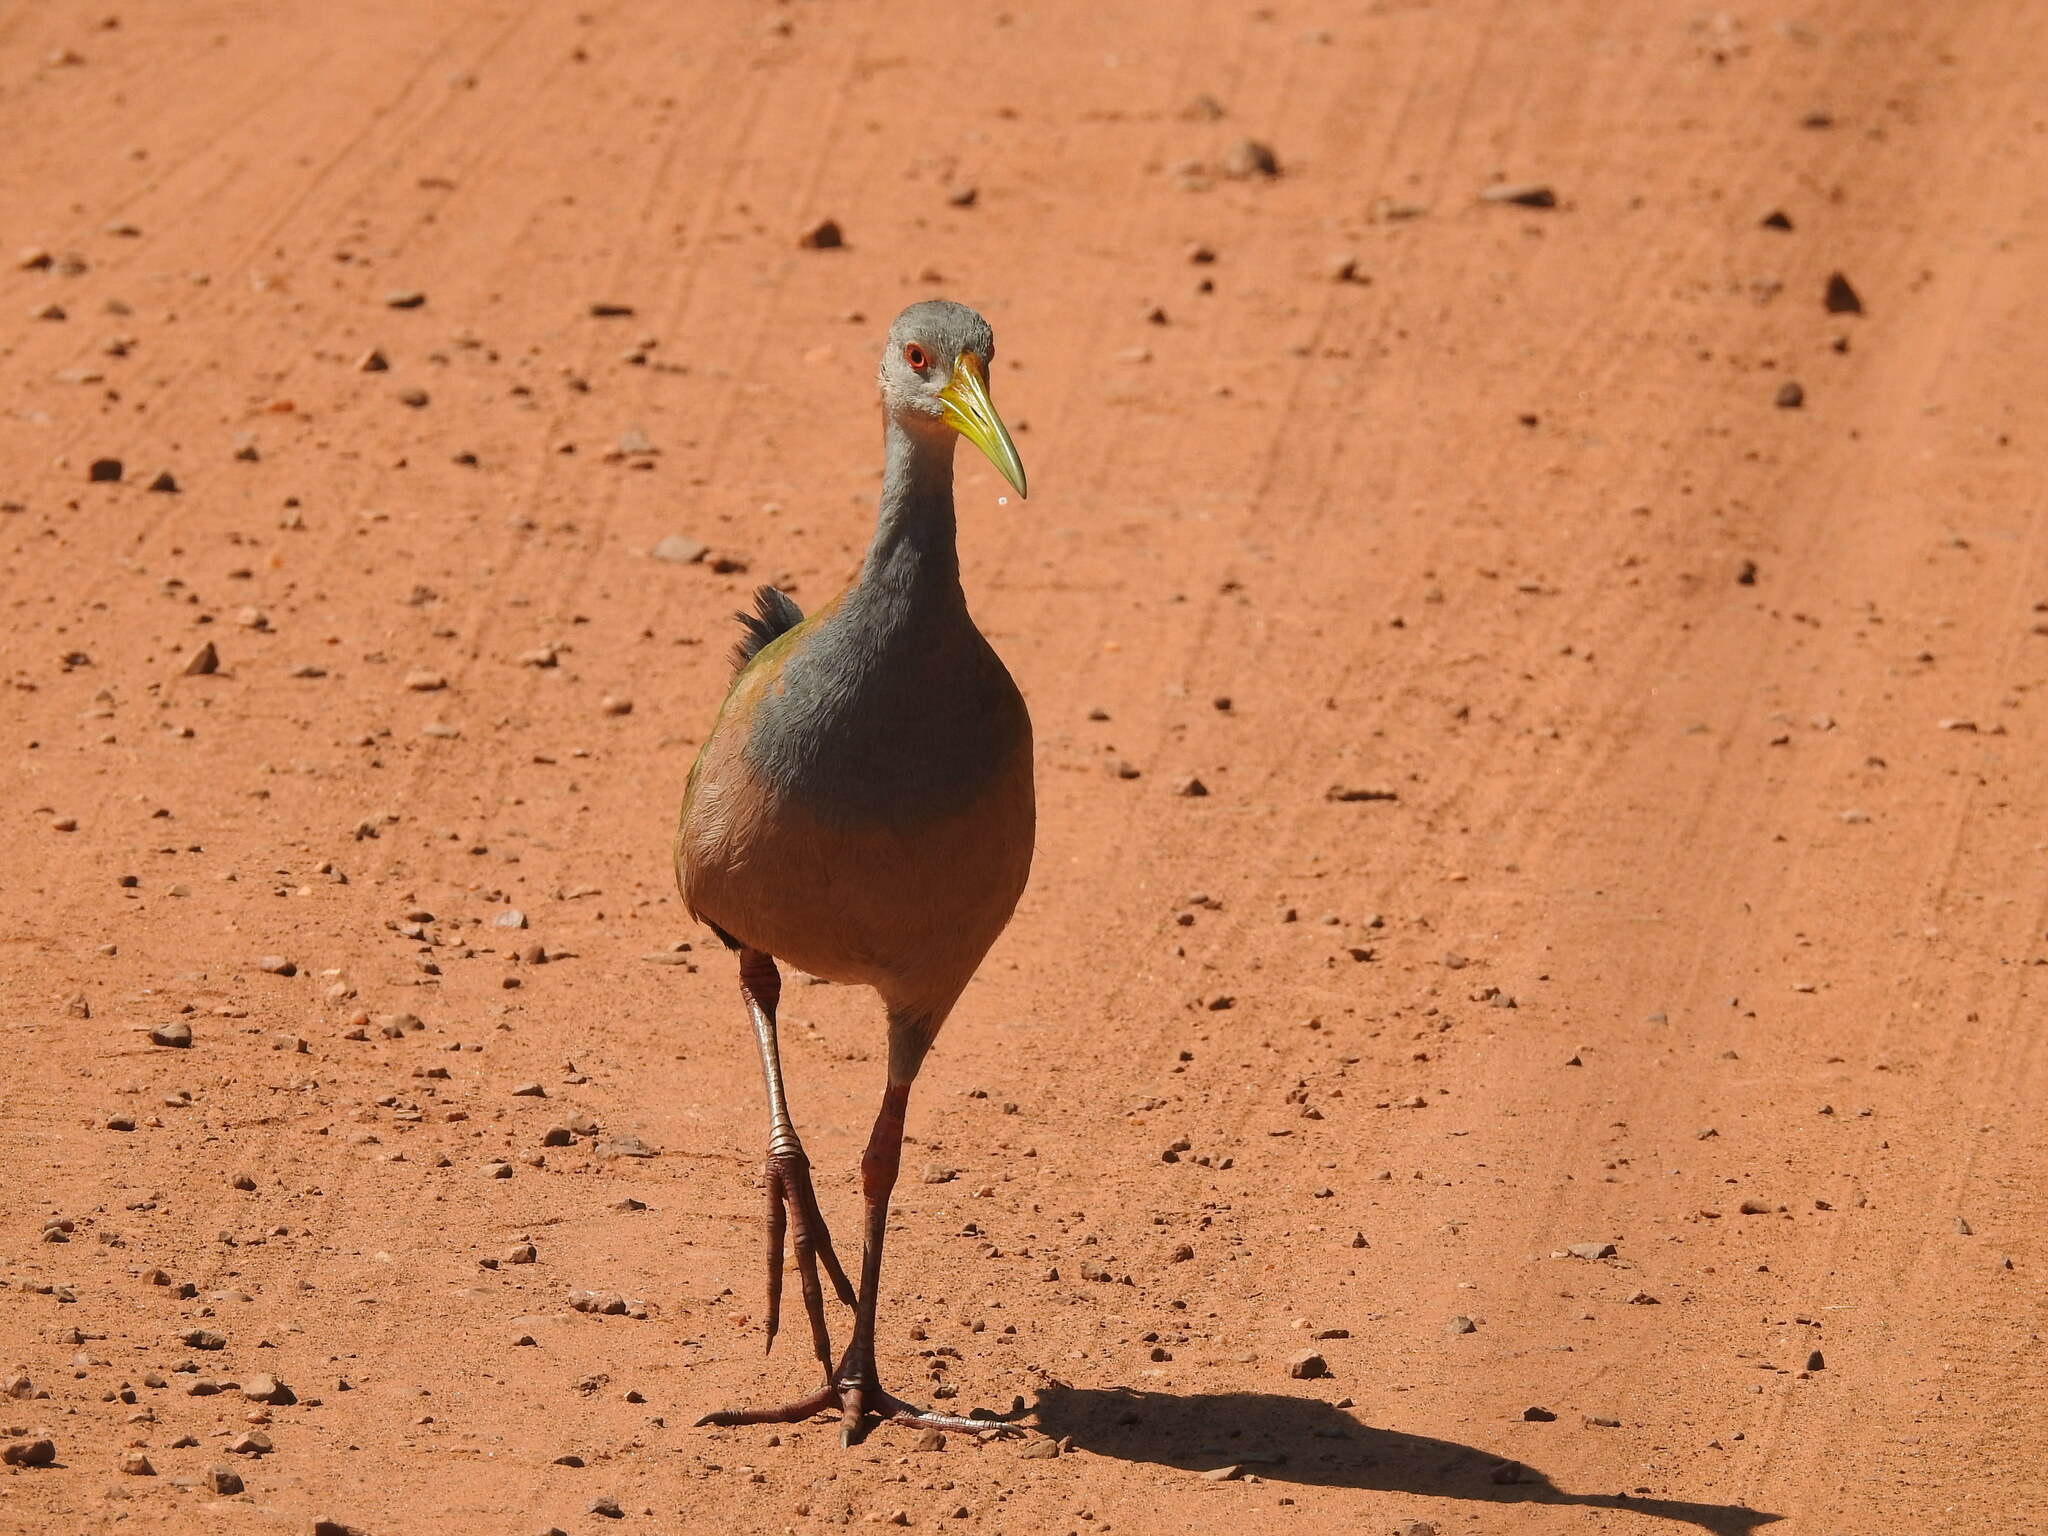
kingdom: Animalia
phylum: Chordata
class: Aves
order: Gruiformes
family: Rallidae
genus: Aramides
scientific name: Aramides ypecaha
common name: Giant wood rail
